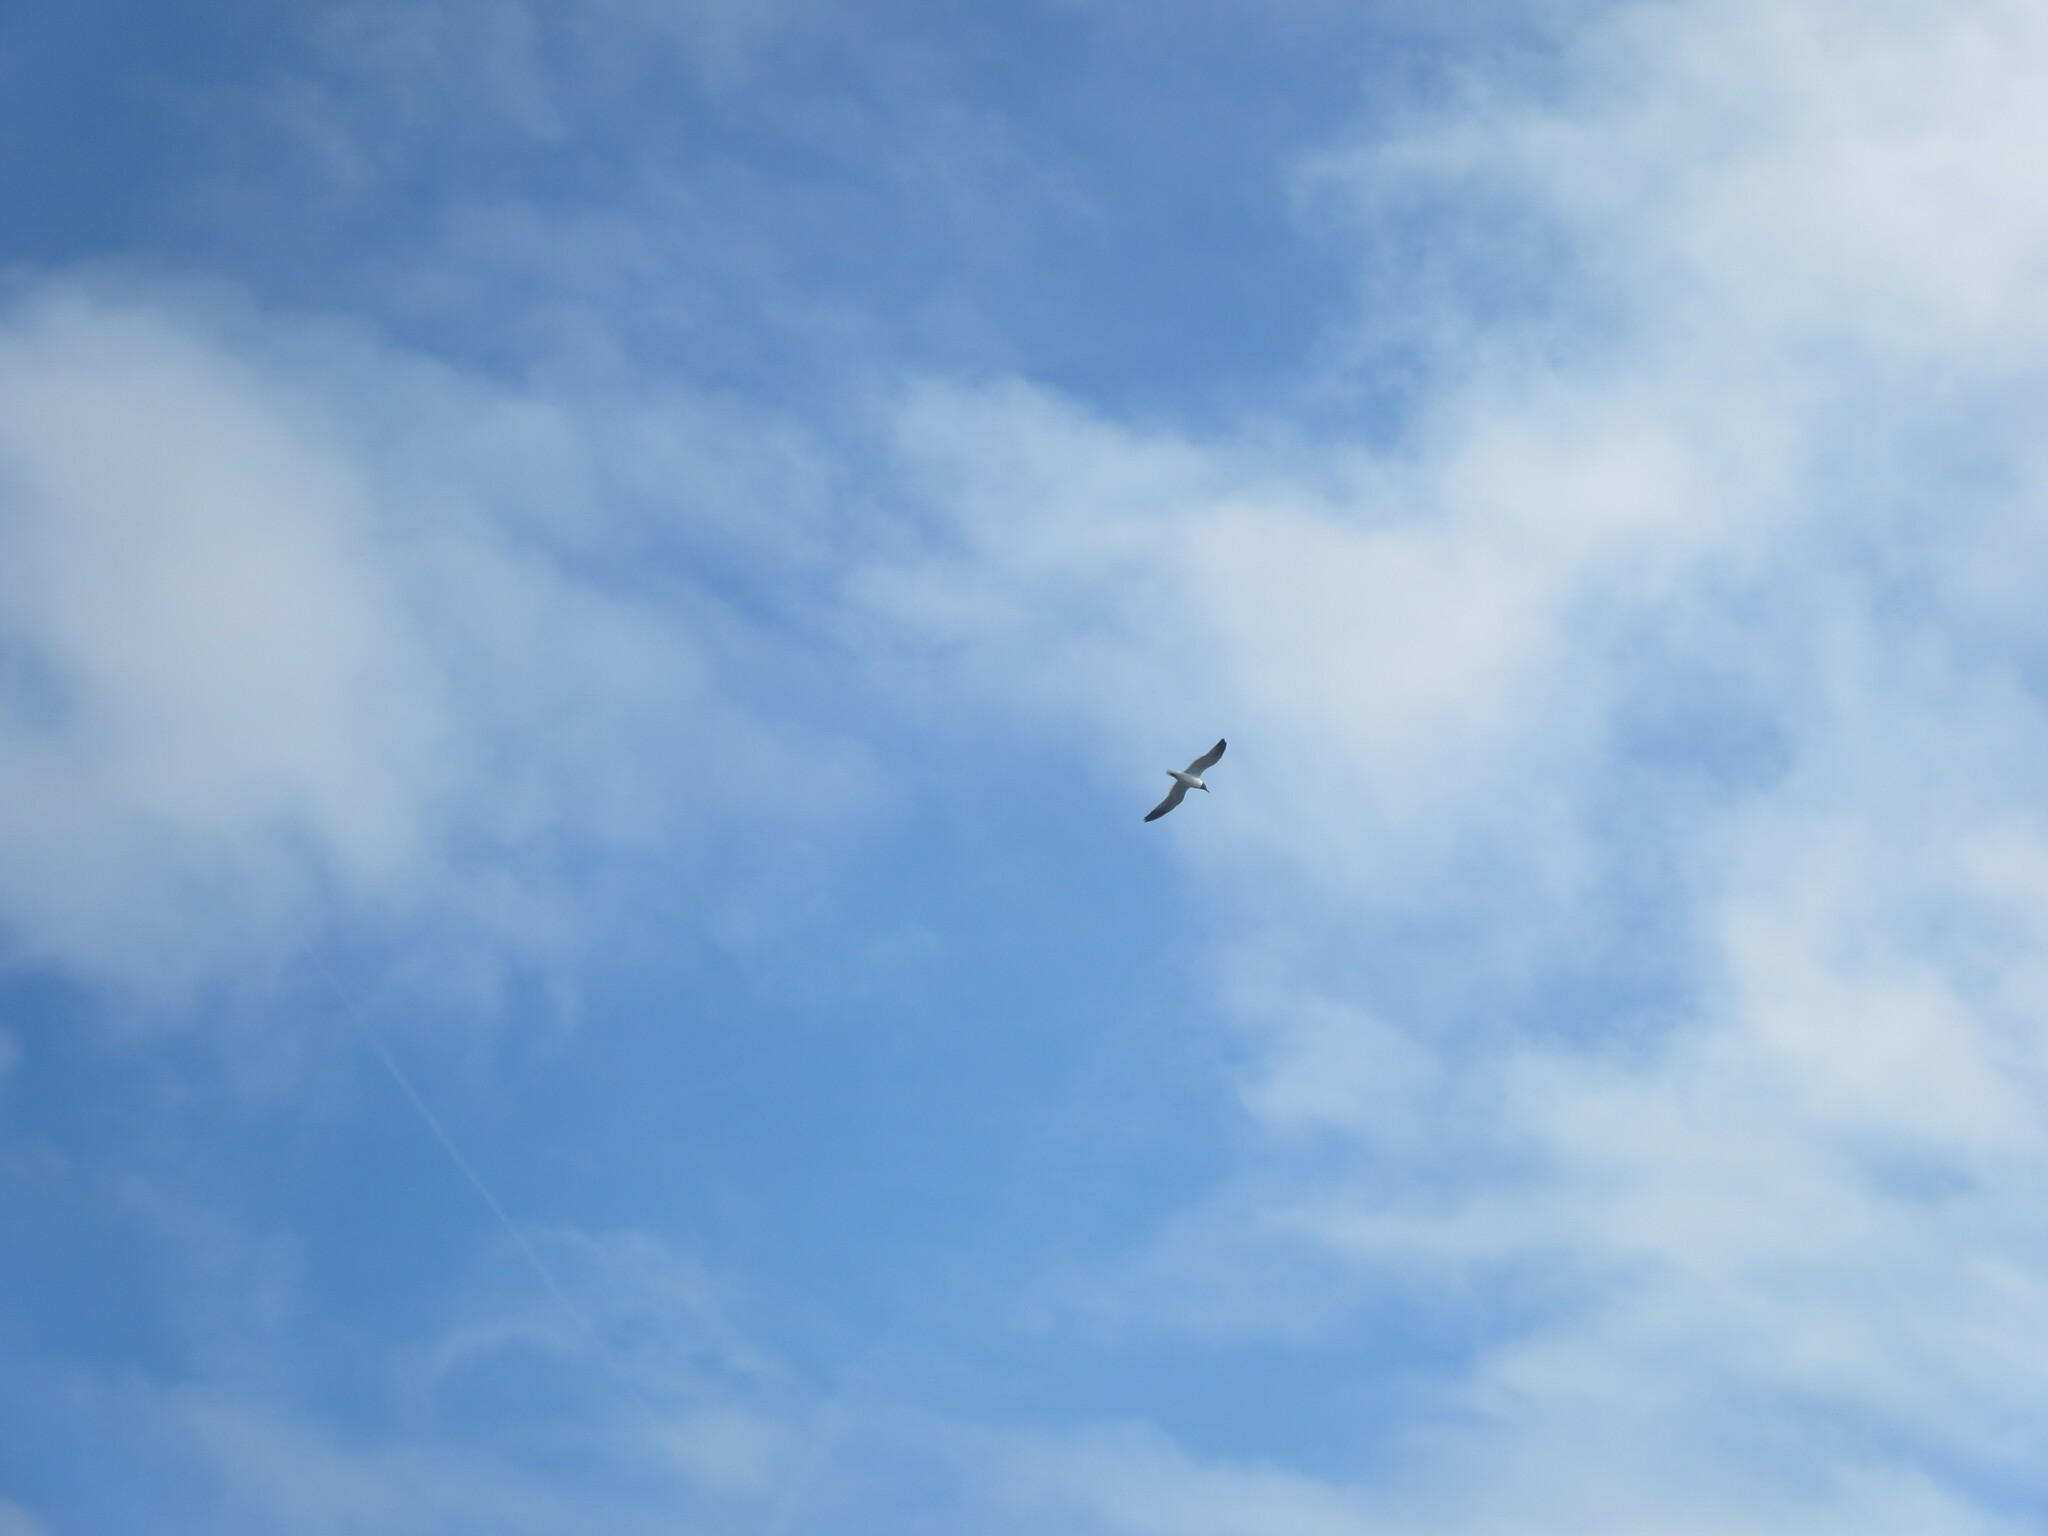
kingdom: Animalia
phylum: Chordata
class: Aves
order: Charadriiformes
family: Laridae
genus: Leucophaeus
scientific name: Leucophaeus atricilla
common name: Laughing gull
